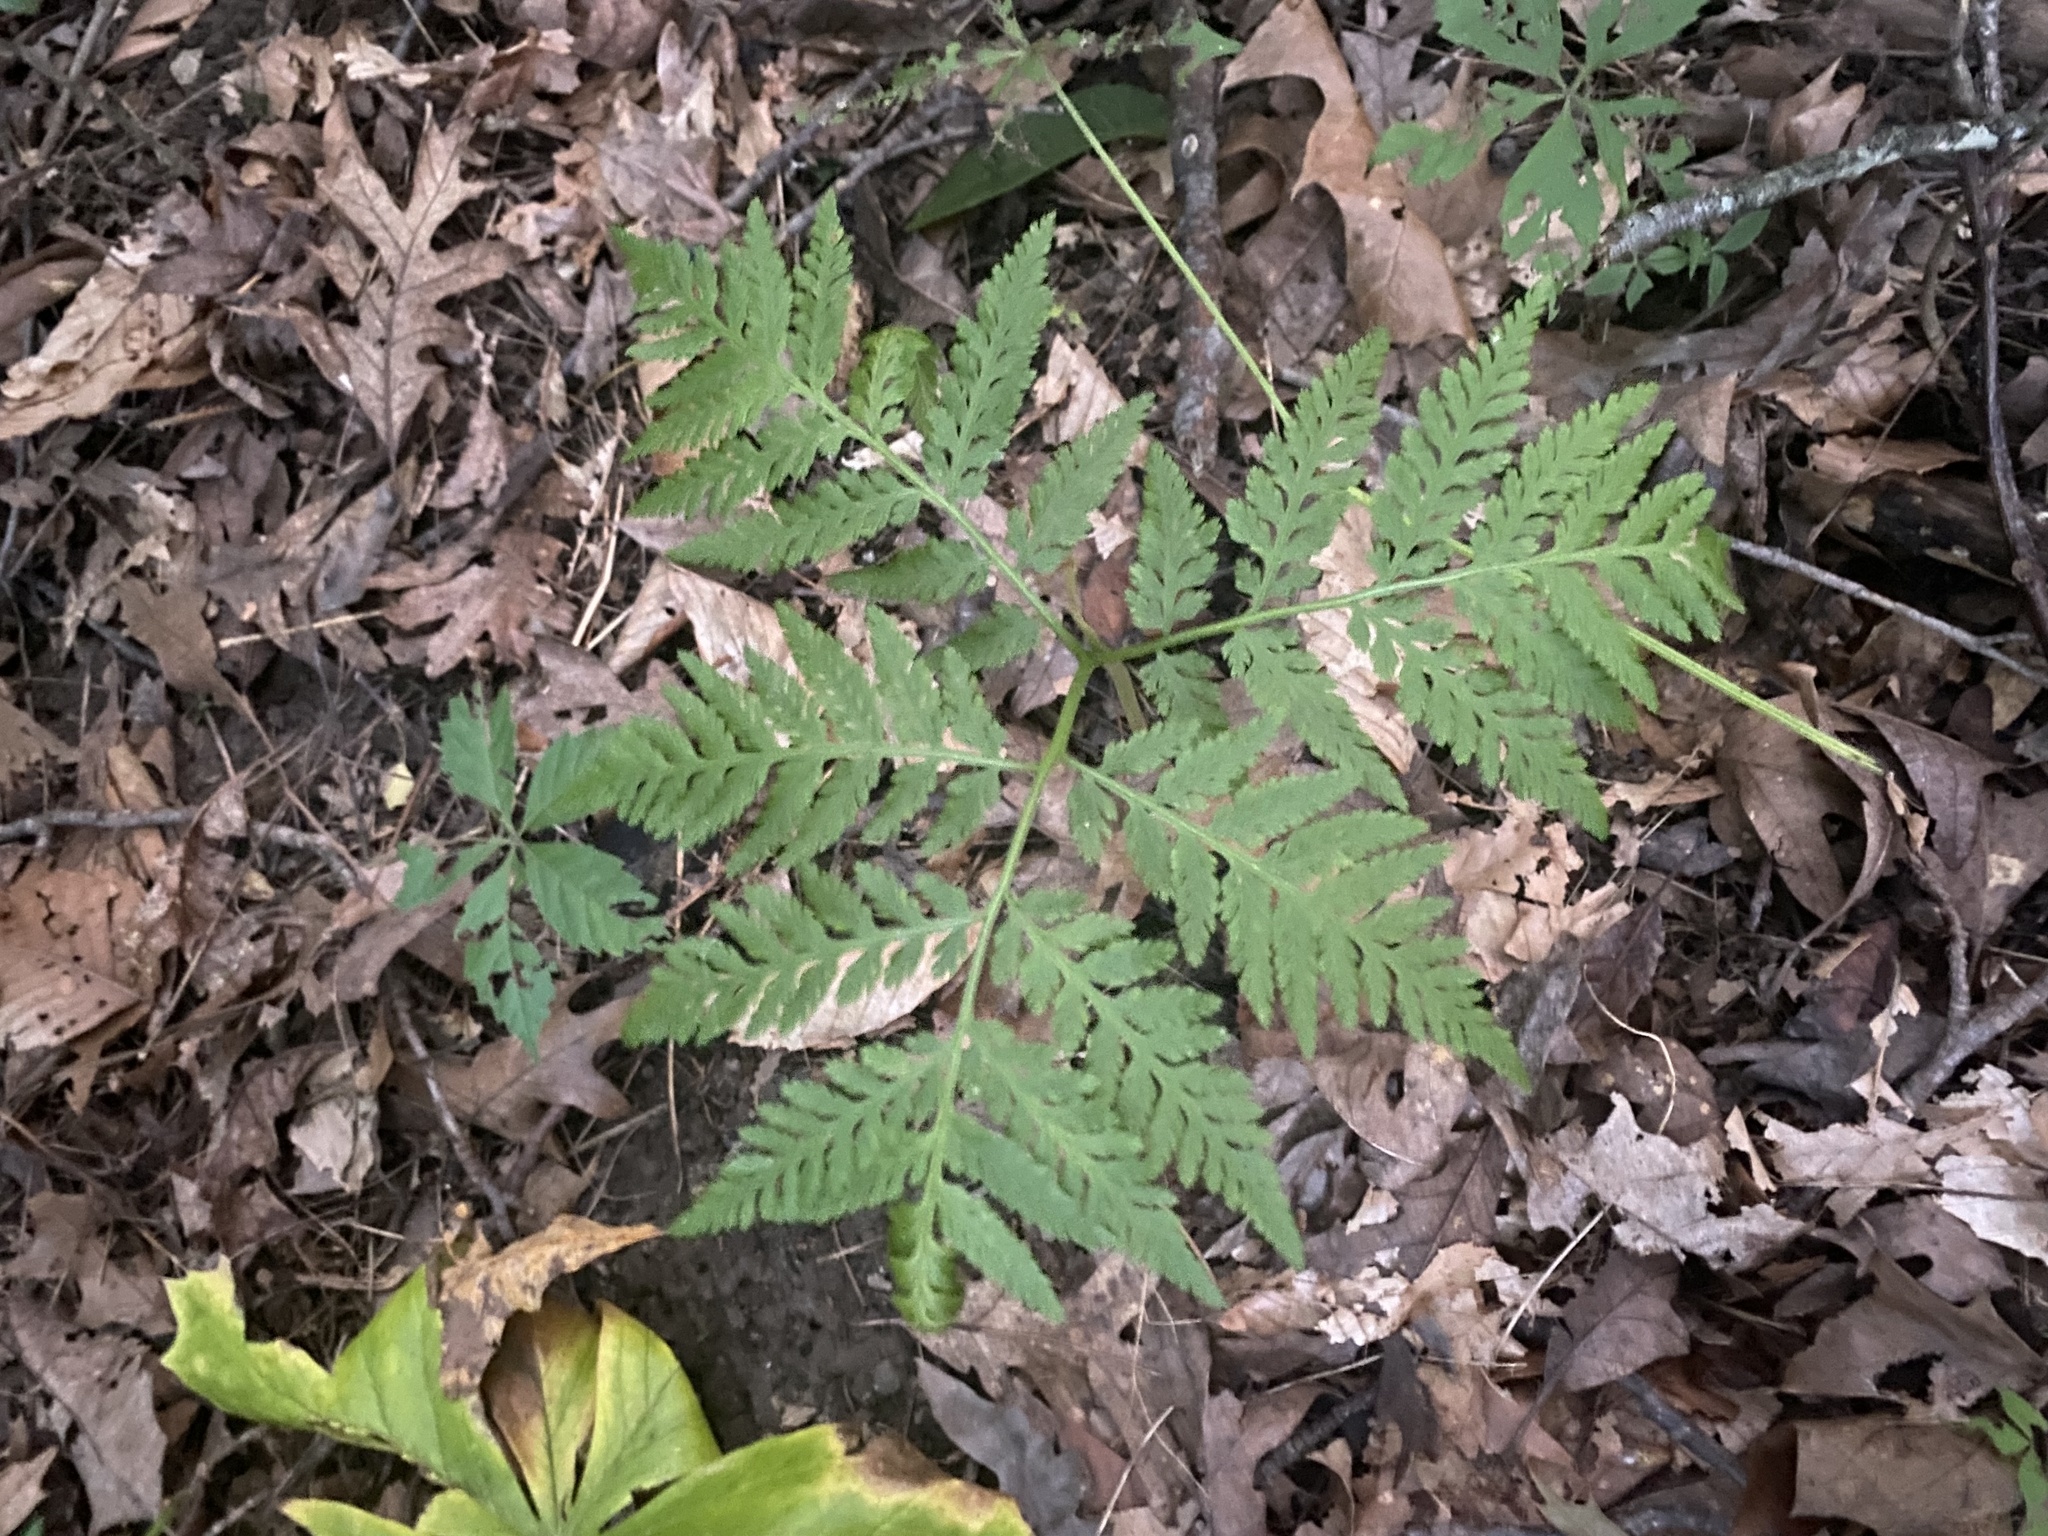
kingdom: Plantae
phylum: Tracheophyta
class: Polypodiopsida
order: Ophioglossales
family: Ophioglossaceae
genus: Botrypus
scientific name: Botrypus virginianus
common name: Common grapefern
